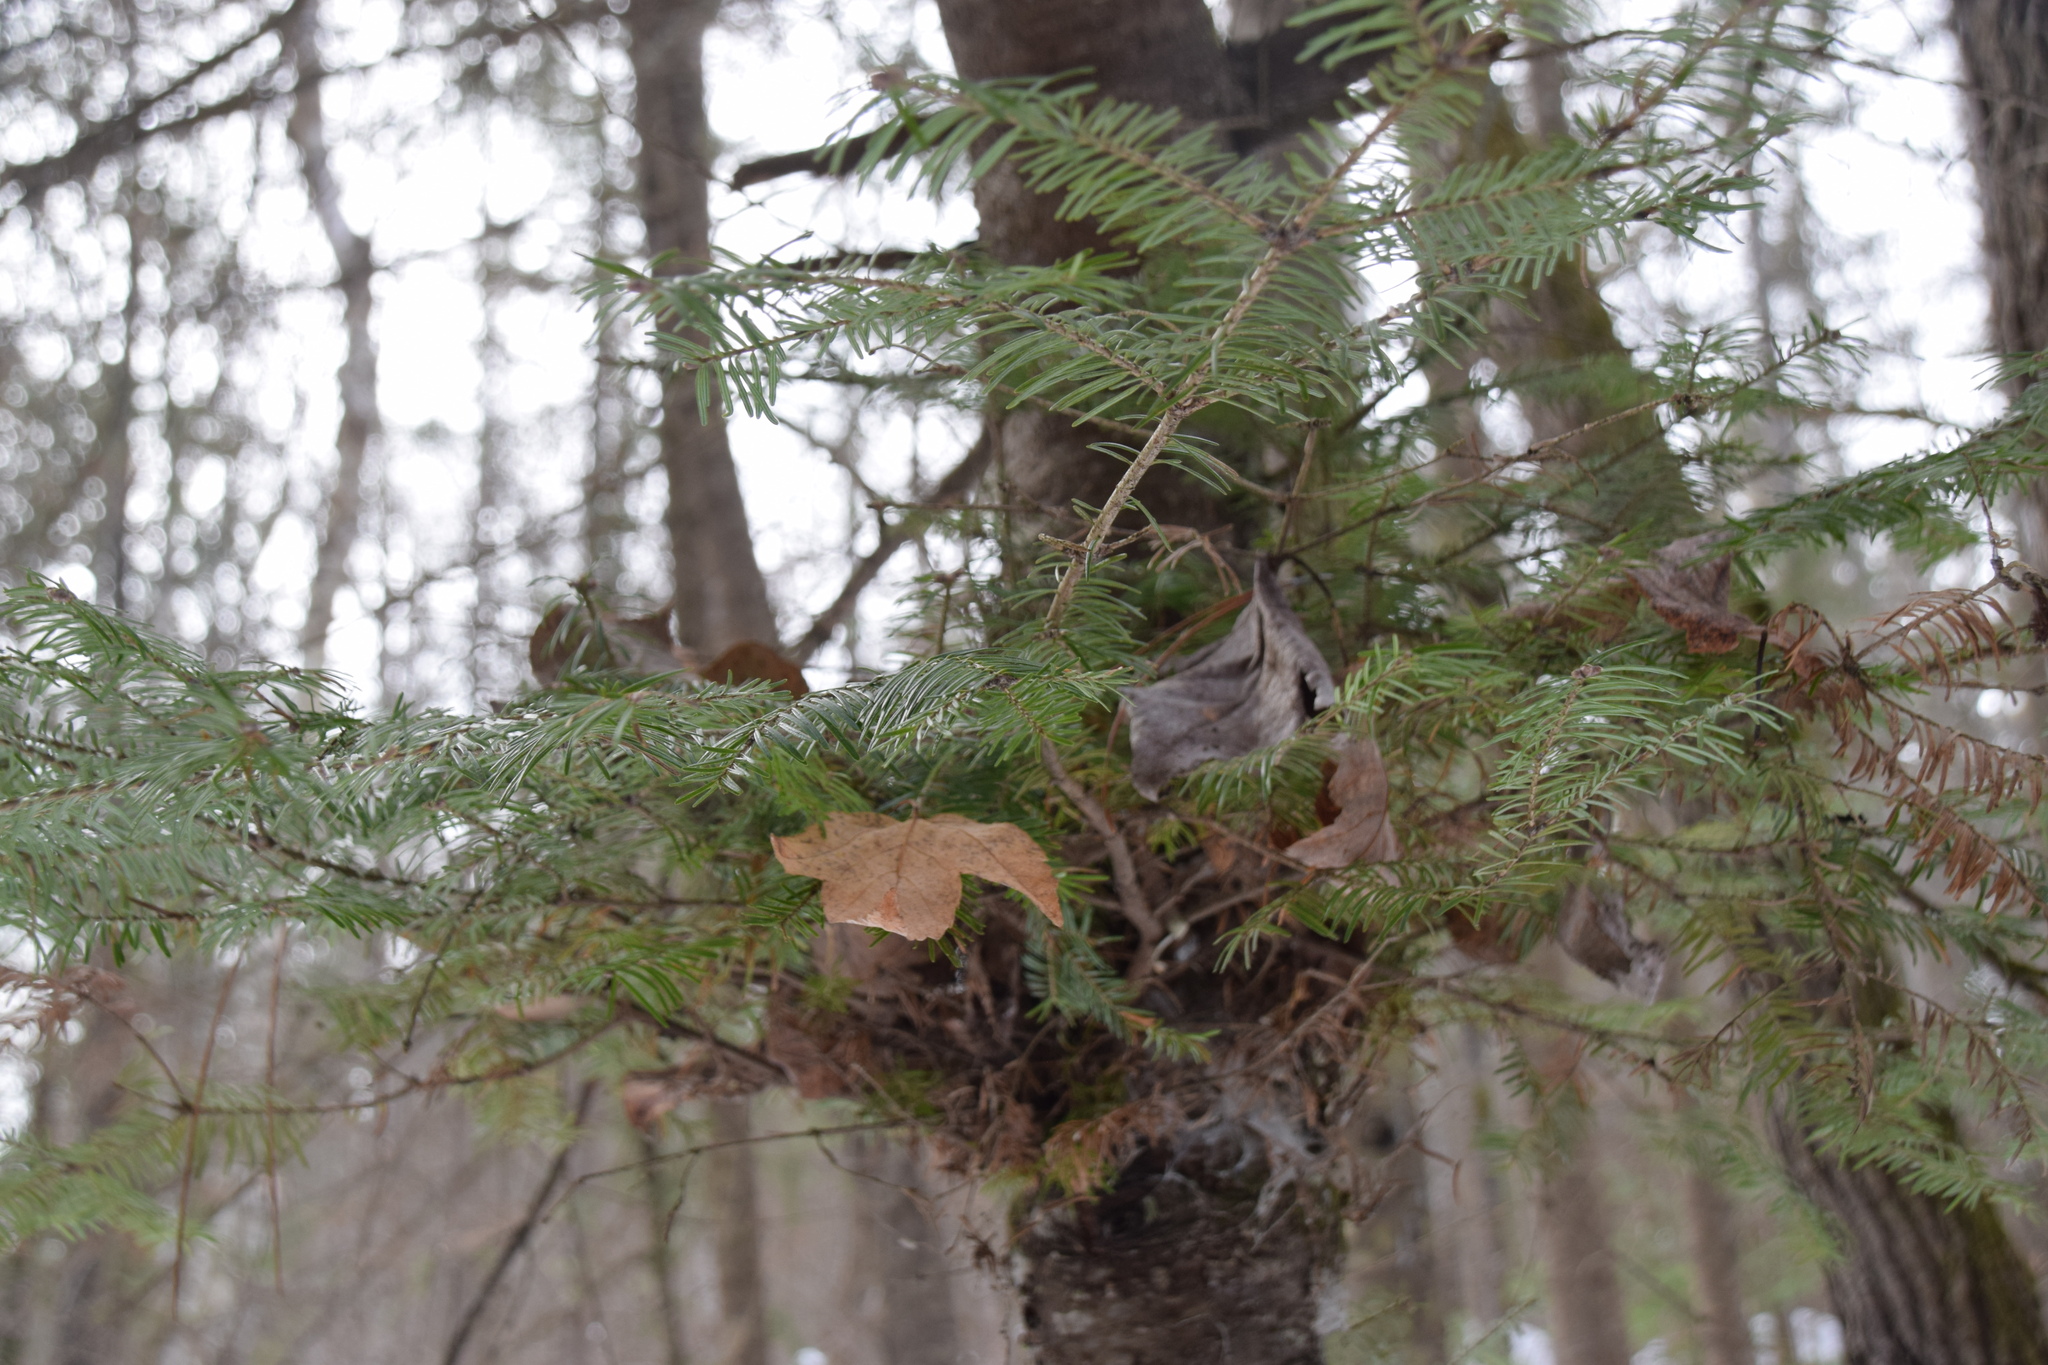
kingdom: Plantae
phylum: Tracheophyta
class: Pinopsida
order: Pinales
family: Pinaceae
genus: Abies
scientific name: Abies balsamea
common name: Balsam fir
